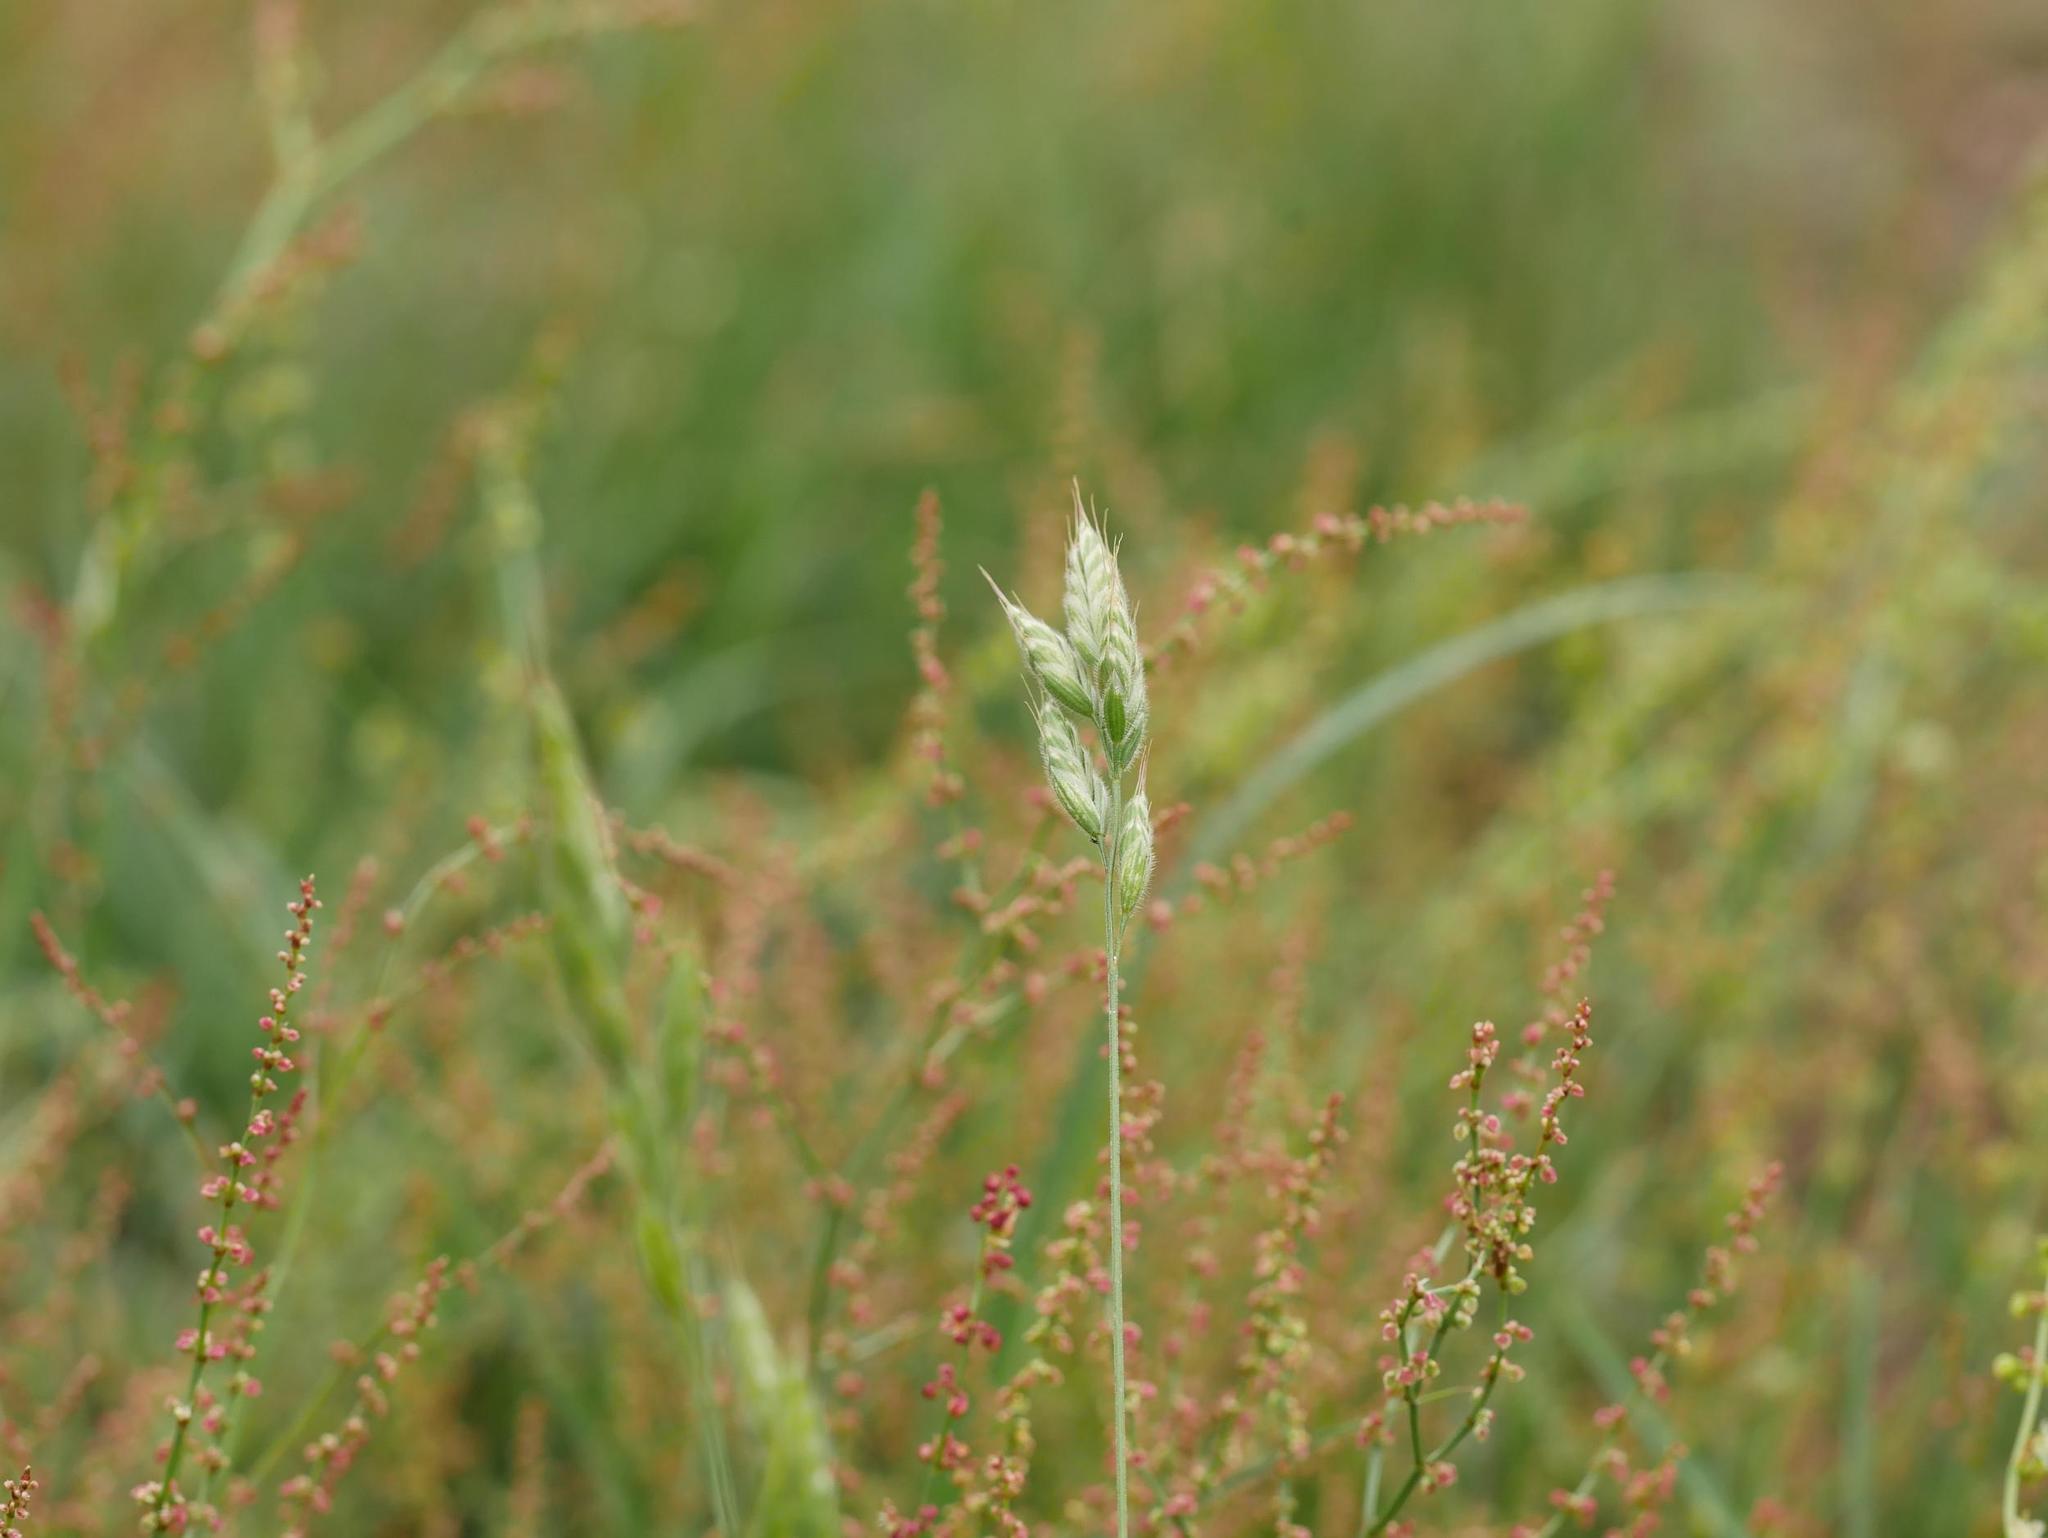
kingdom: Plantae
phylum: Tracheophyta
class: Liliopsida
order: Poales
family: Poaceae
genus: Bromus
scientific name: Bromus hordeaceus
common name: Soft brome
